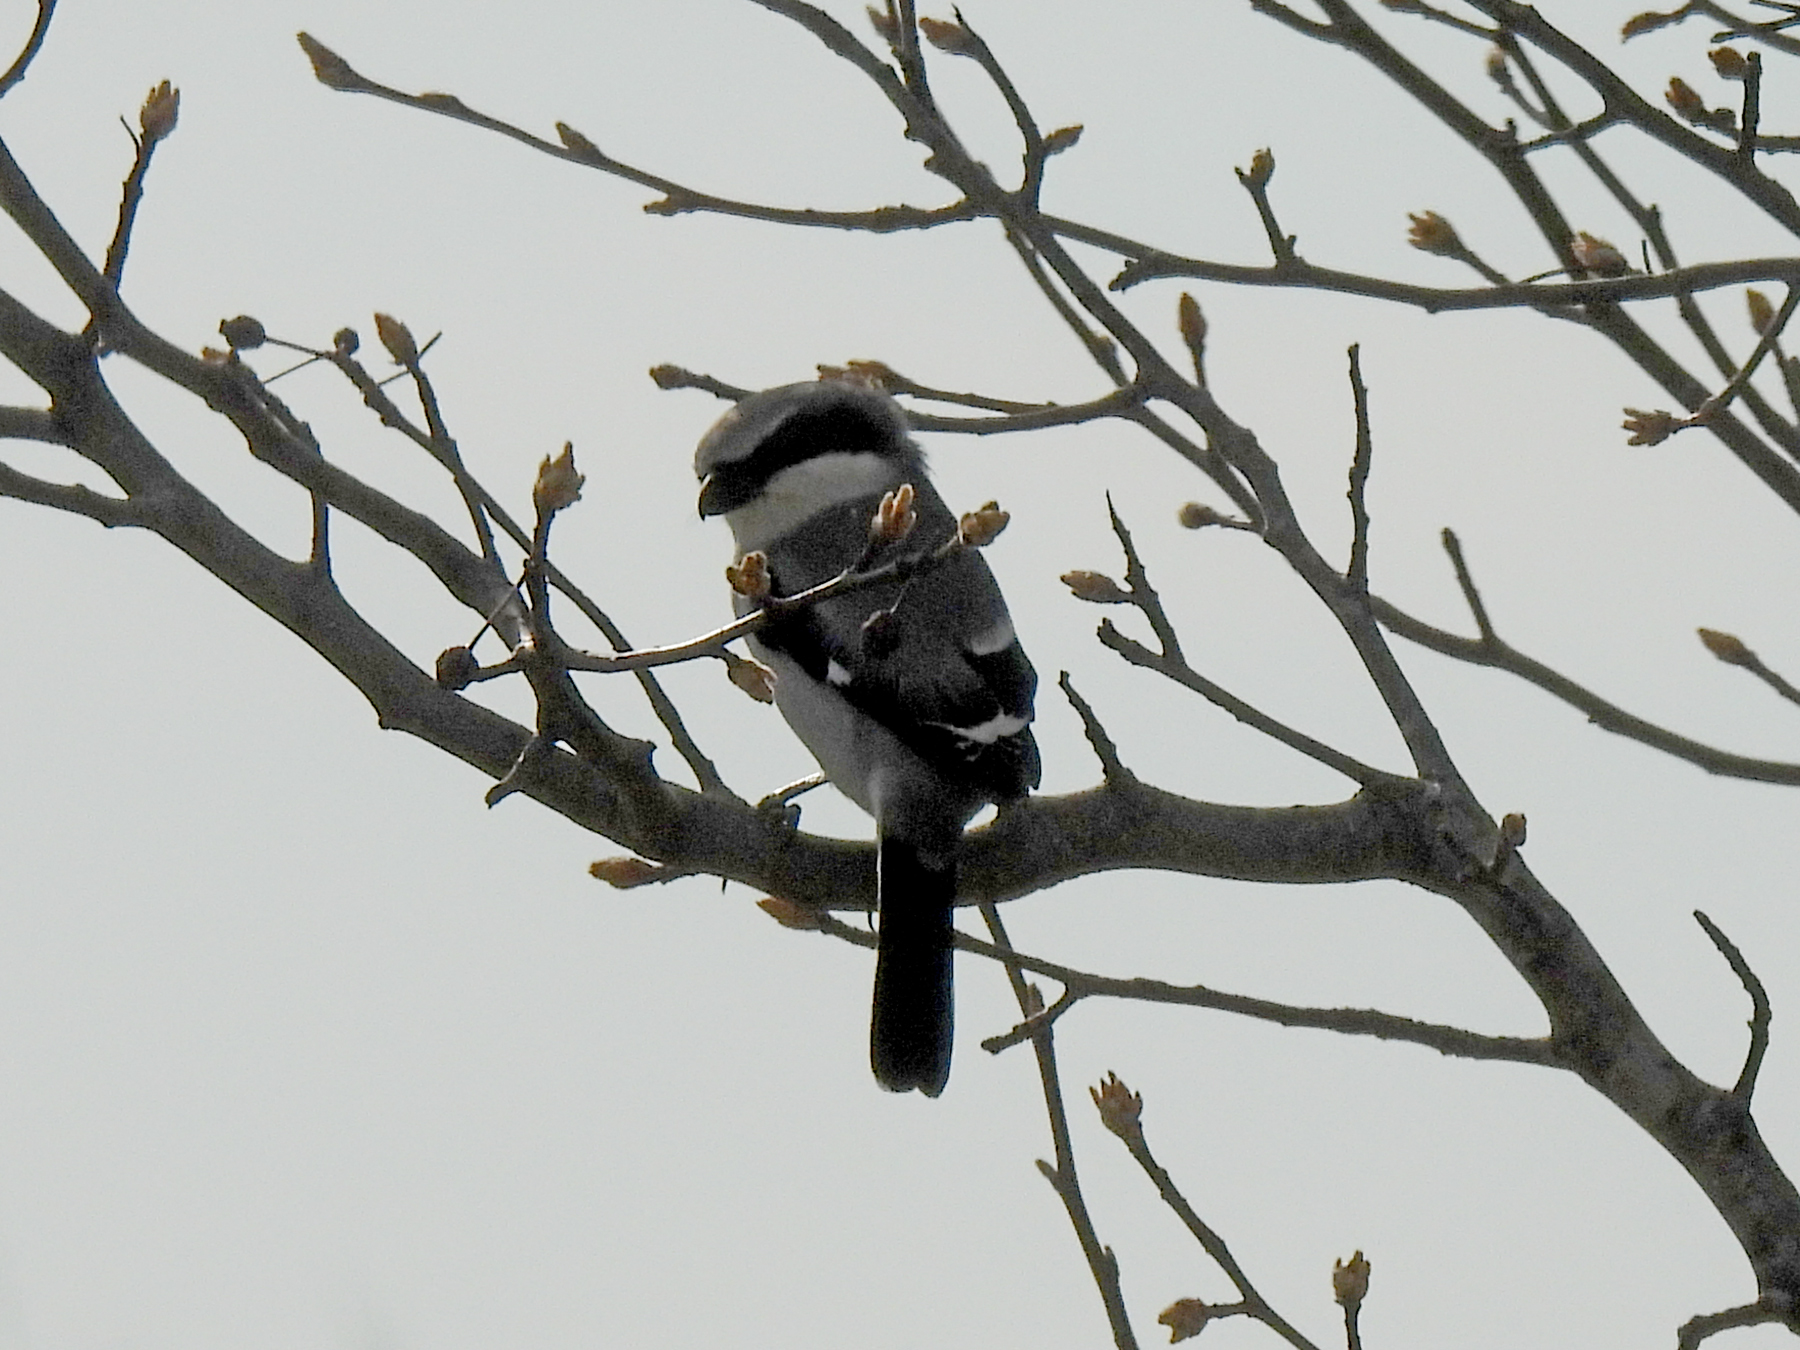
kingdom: Animalia
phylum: Chordata
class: Aves
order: Passeriformes
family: Laniidae
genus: Lanius
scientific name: Lanius ludovicianus
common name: Loggerhead shrike
